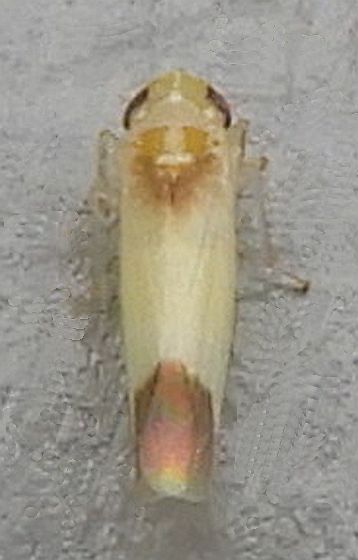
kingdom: Animalia
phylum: Arthropoda
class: Insecta
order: Hemiptera
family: Cicadellidae
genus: Empoasca
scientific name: Empoasca
